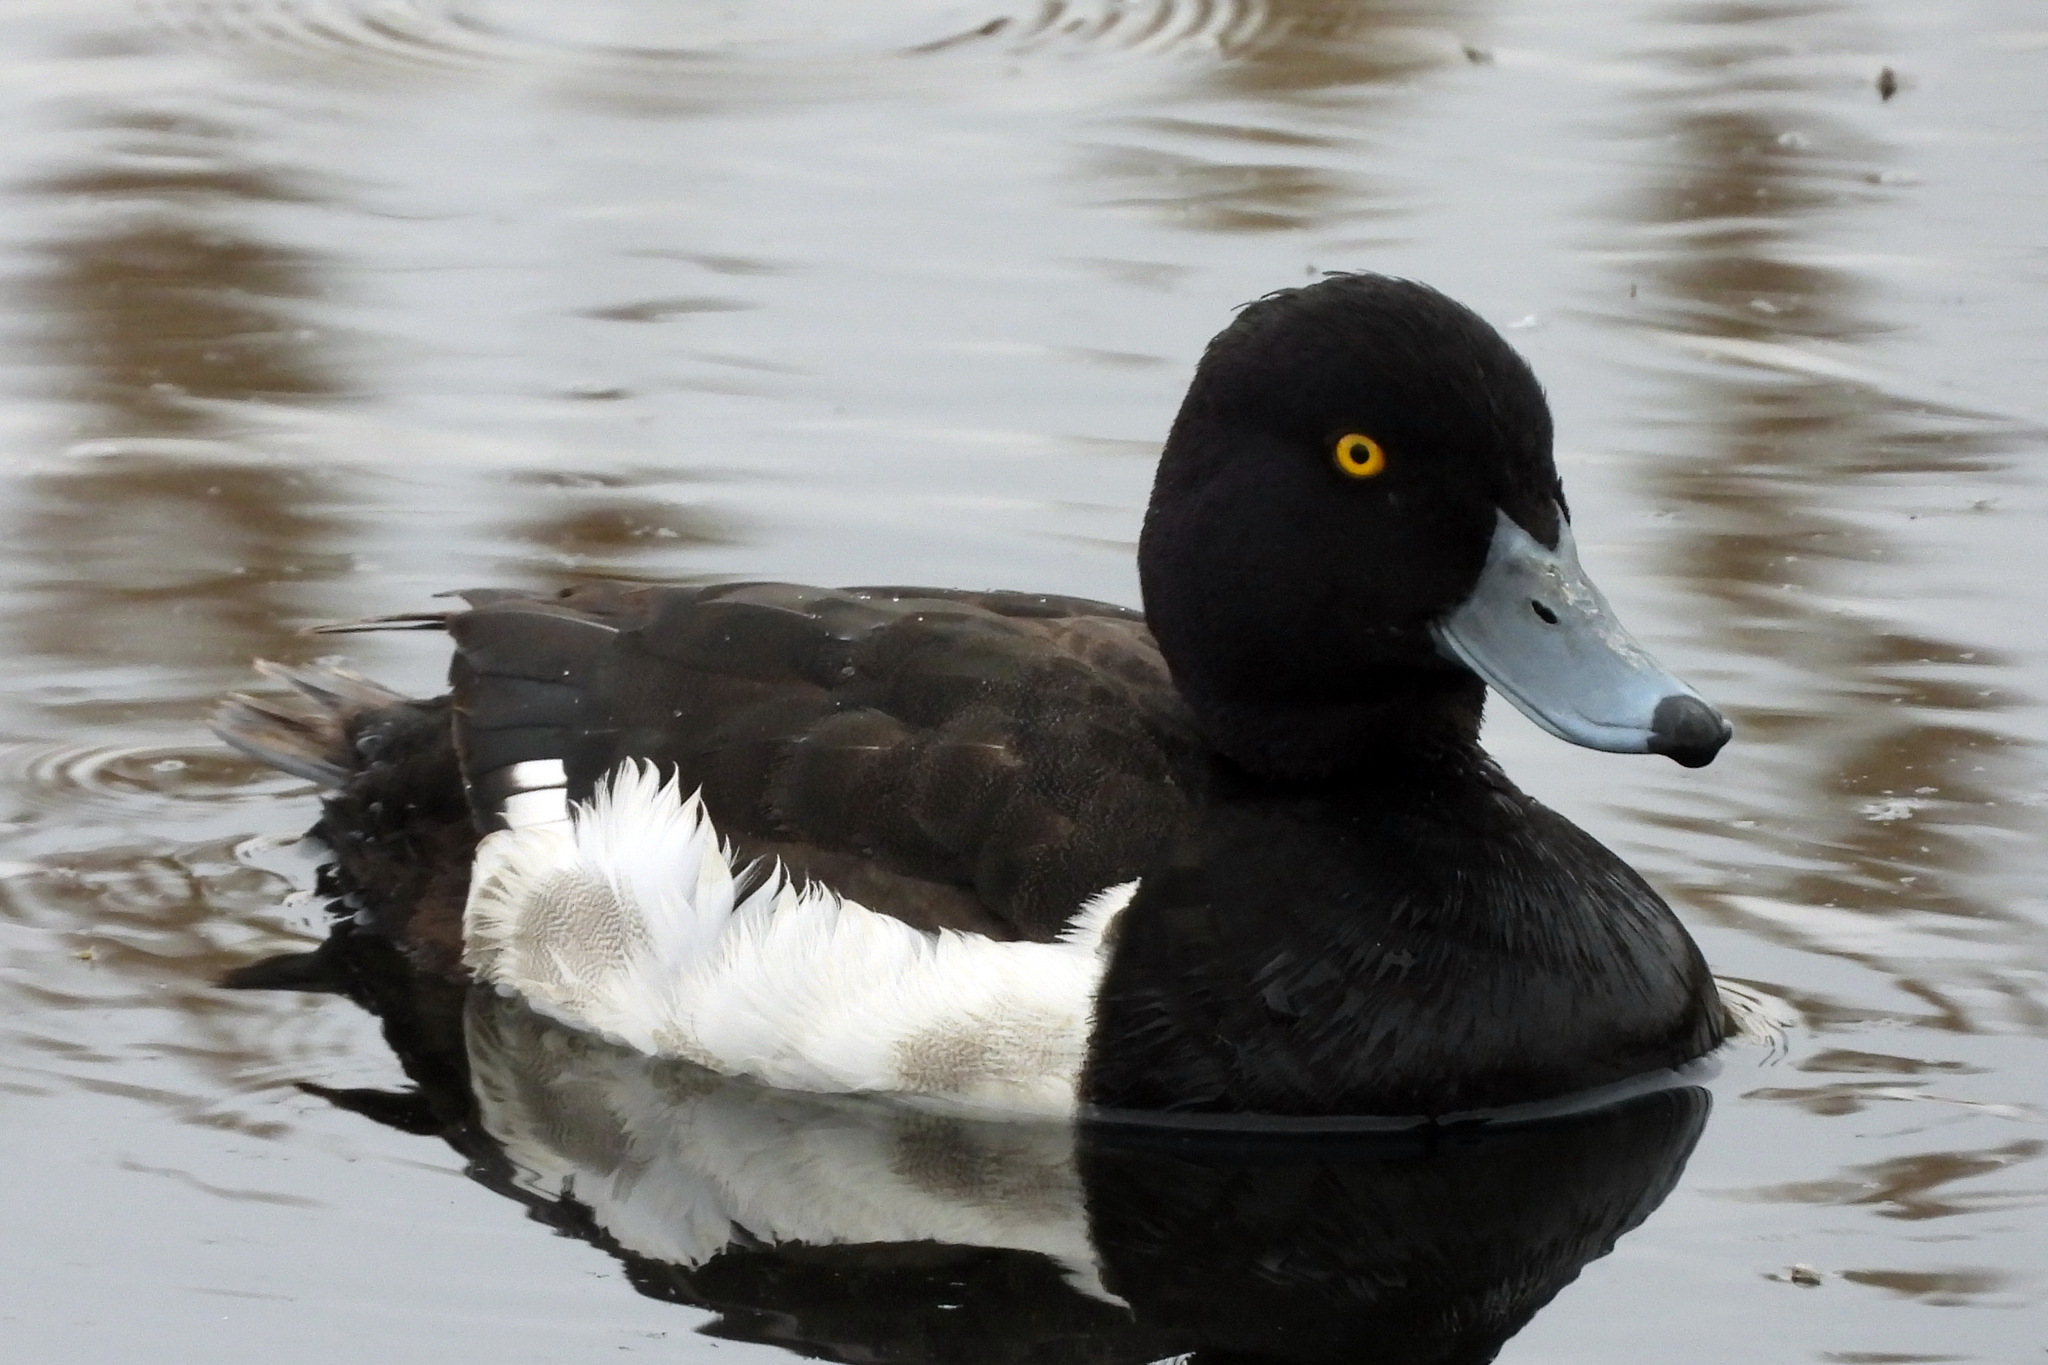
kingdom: Animalia
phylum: Chordata
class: Aves
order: Anseriformes
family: Anatidae
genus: Aythya
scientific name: Aythya fuligula
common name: Tufted duck
